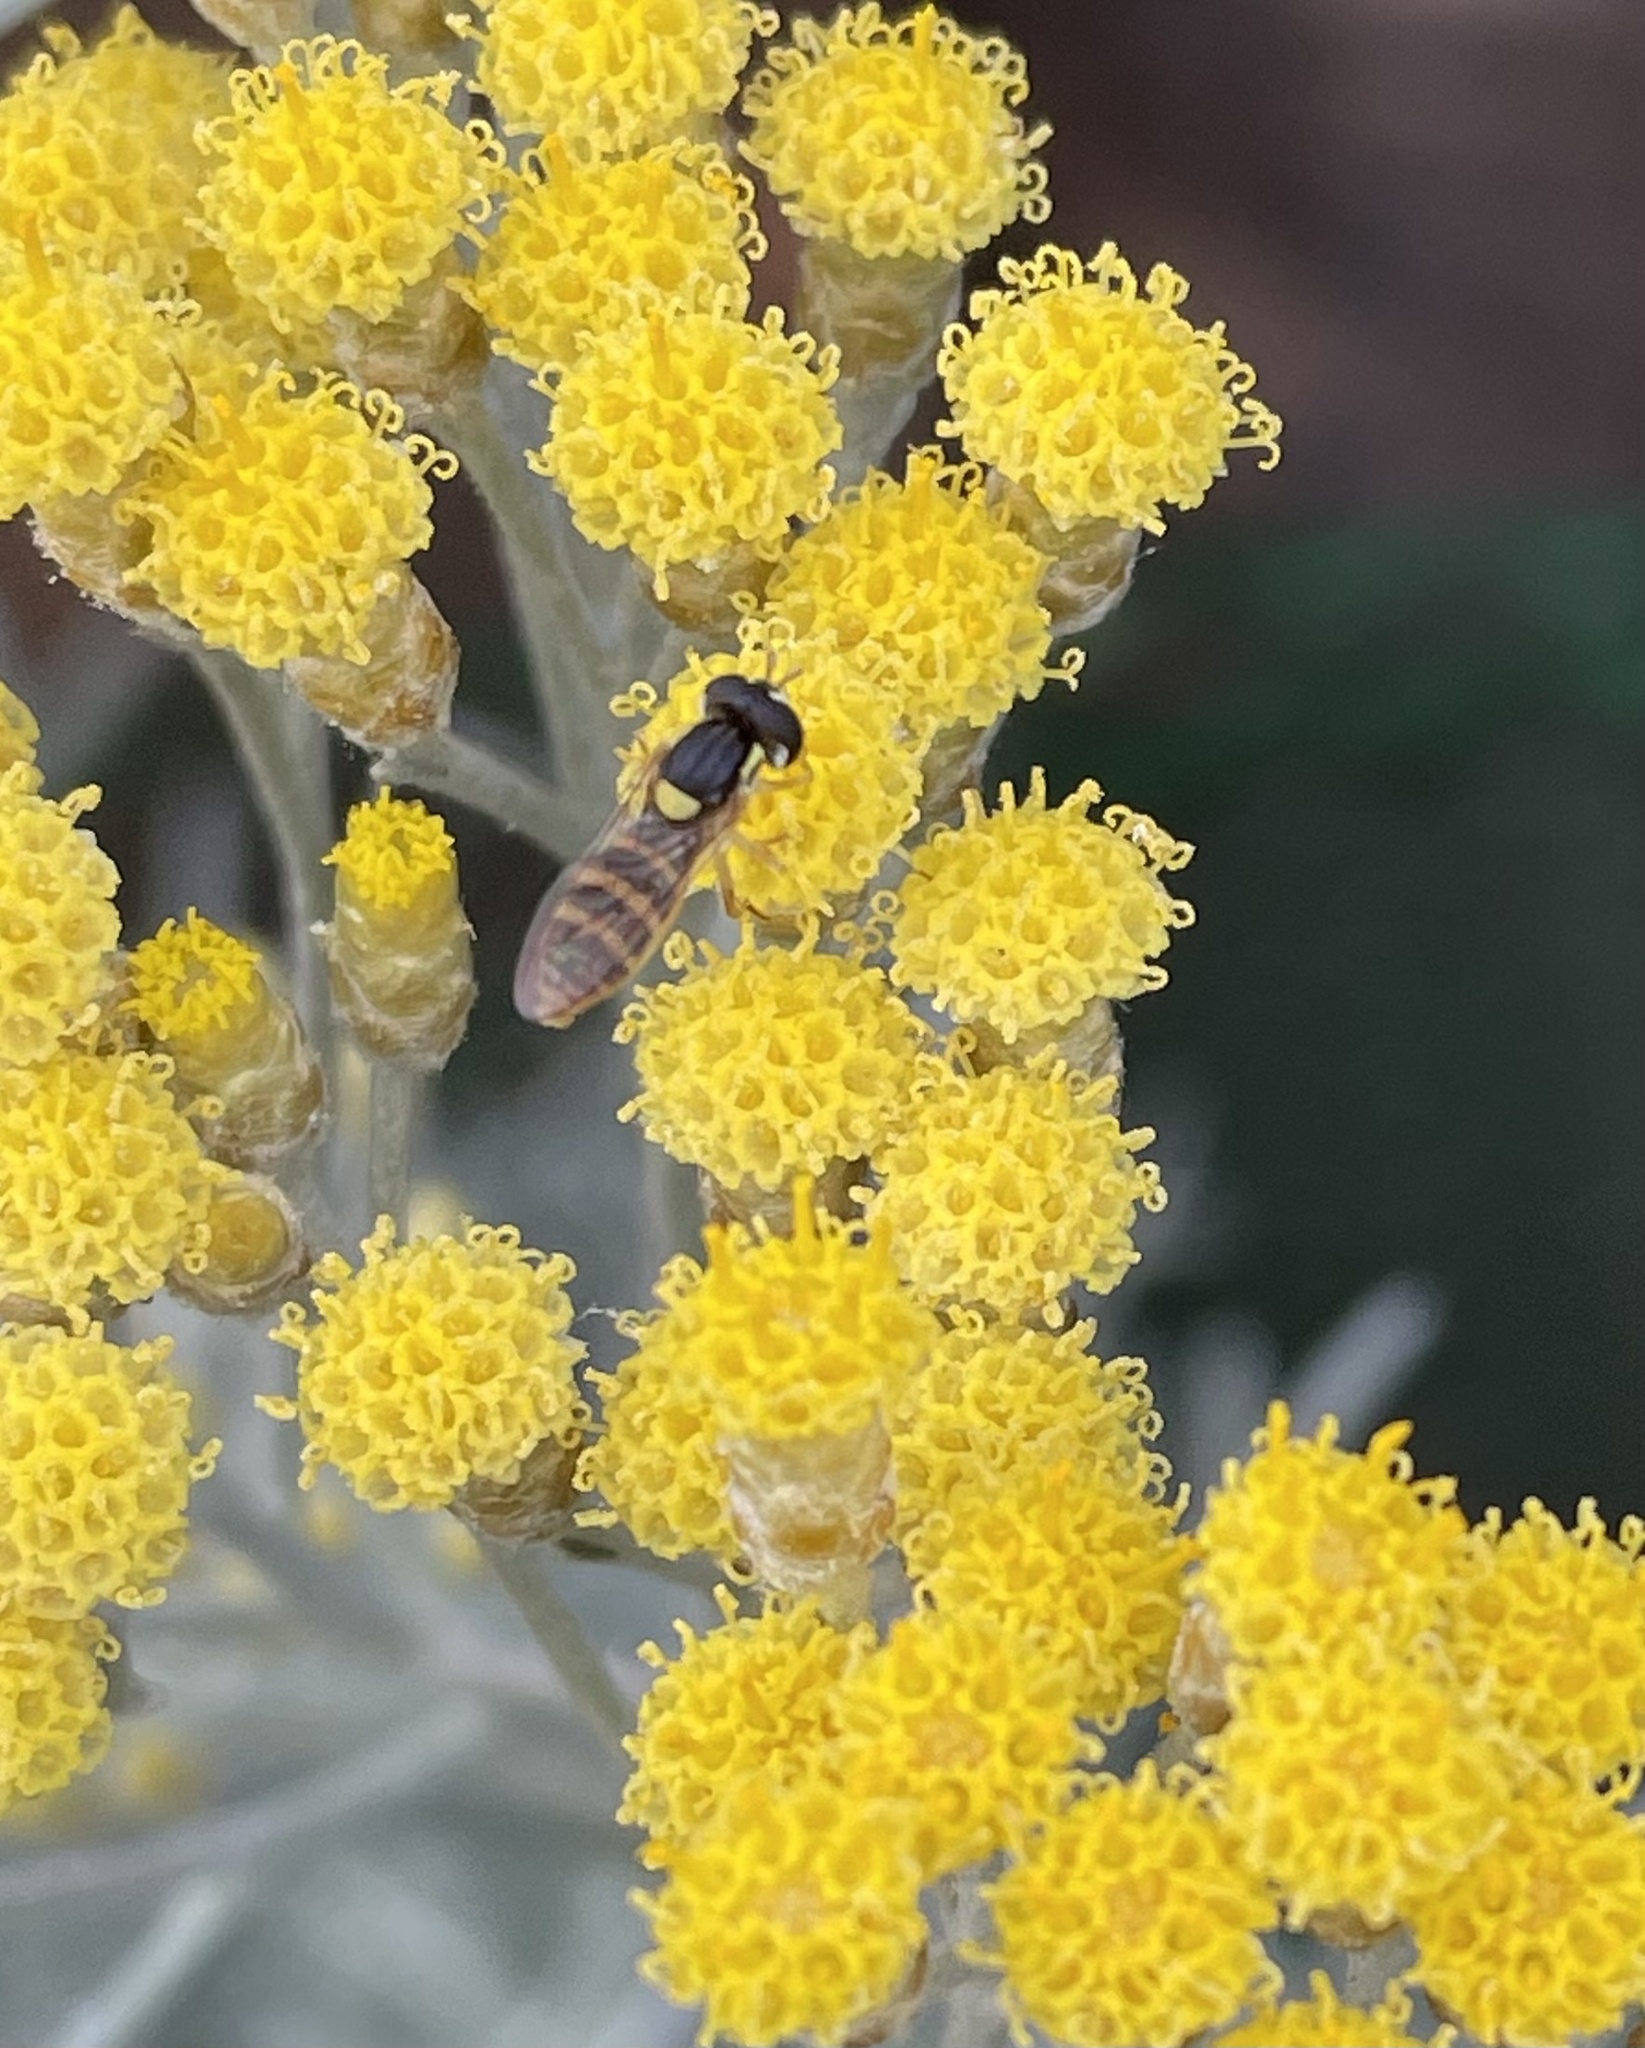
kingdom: Animalia
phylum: Arthropoda
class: Insecta
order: Diptera
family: Syrphidae
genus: Sphaerophoria
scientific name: Sphaerophoria sulphuripes
